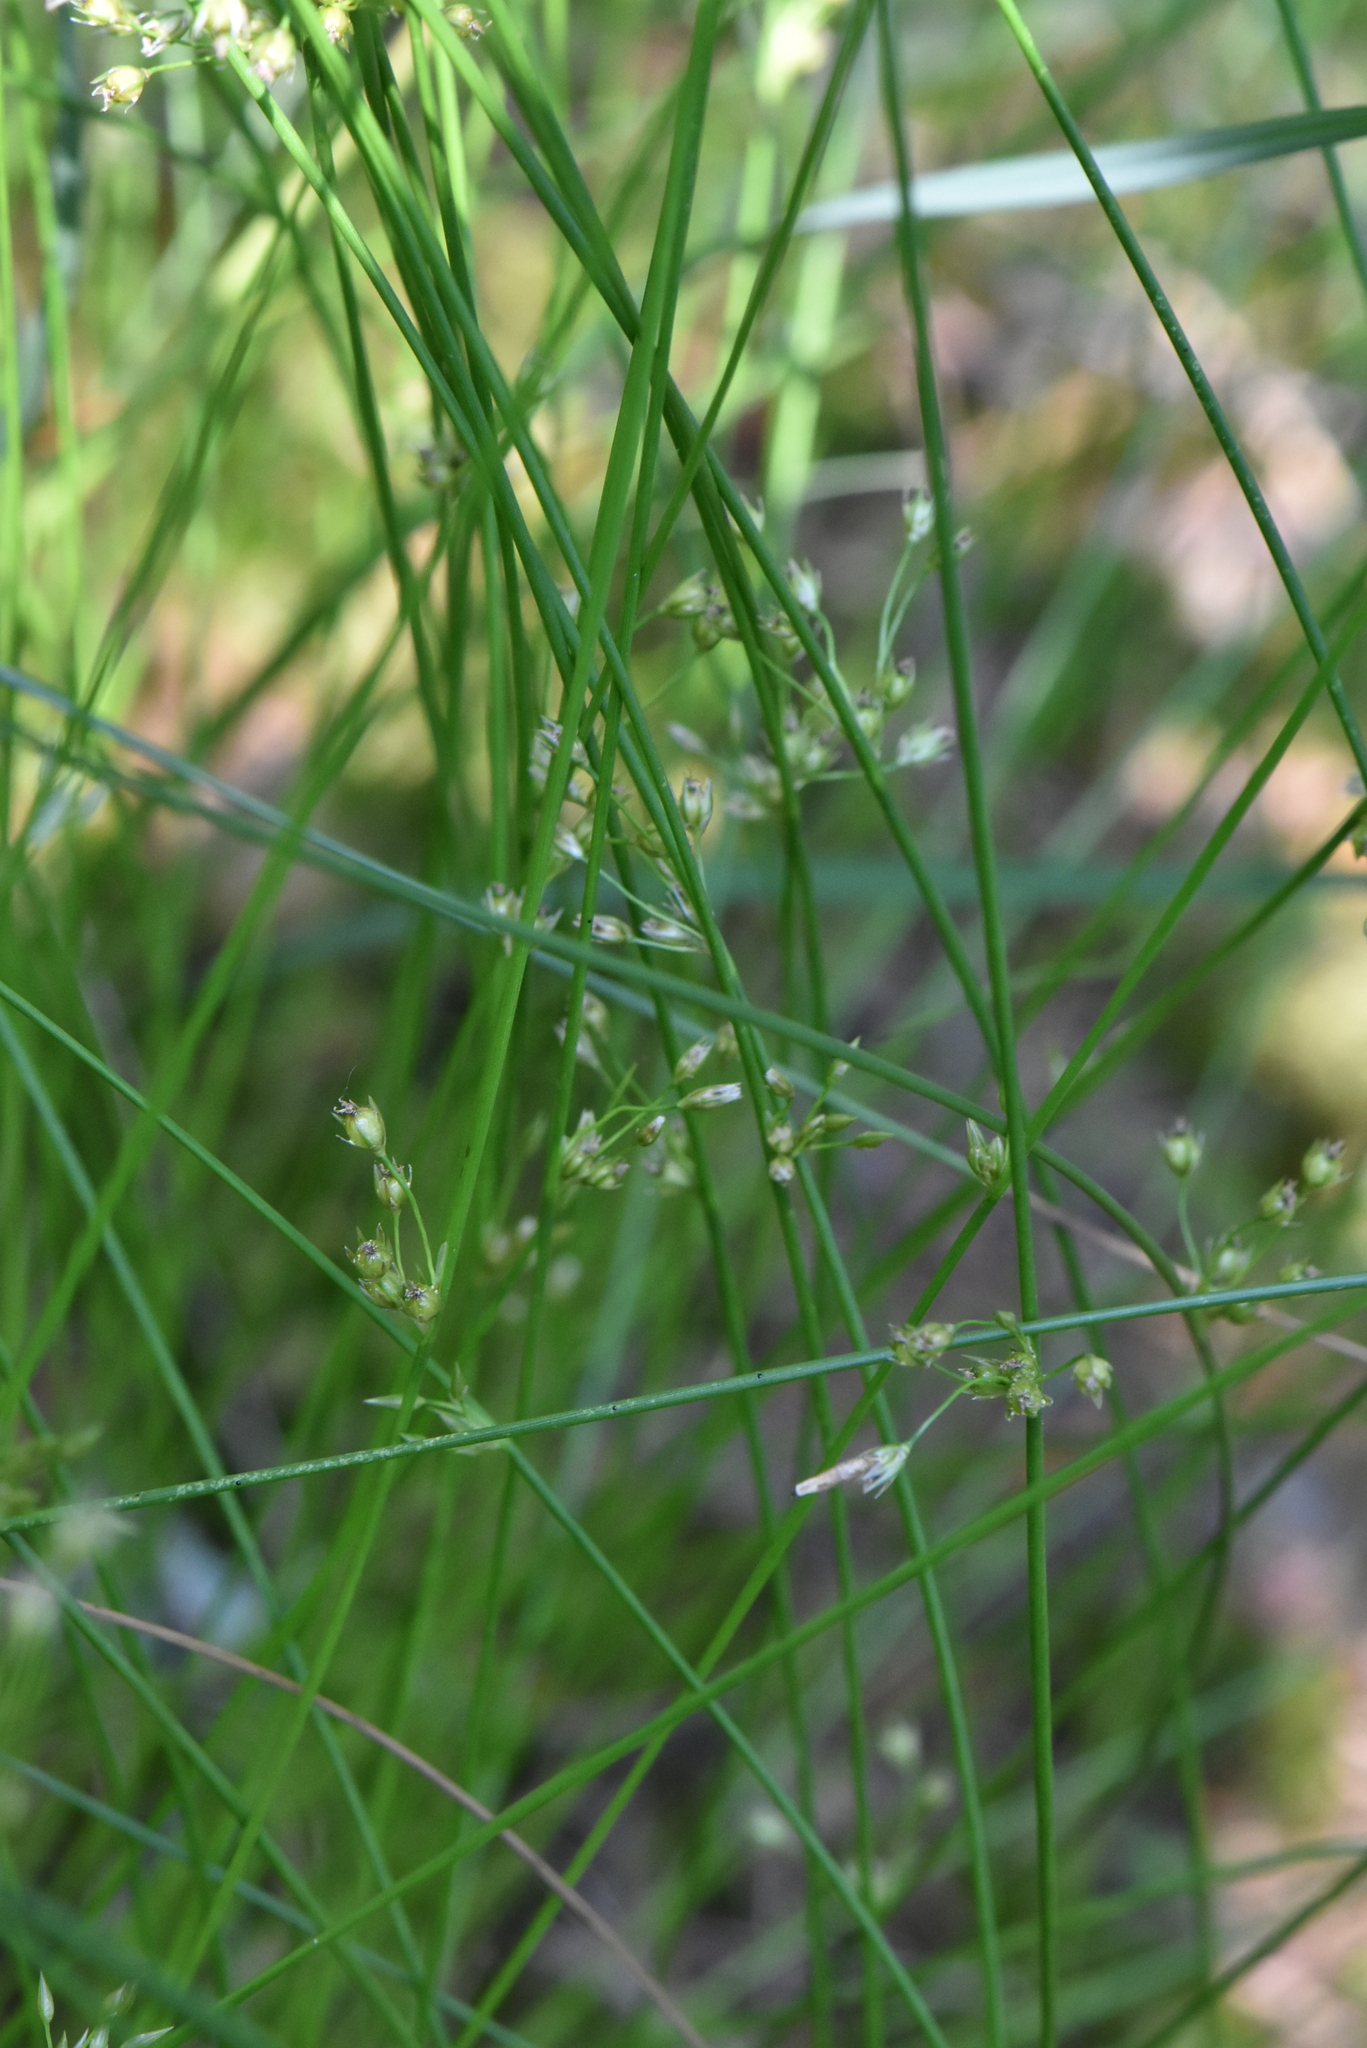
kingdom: Plantae
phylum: Tracheophyta
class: Liliopsida
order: Poales
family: Juncaceae
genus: Juncus
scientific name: Juncus filiformis
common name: Thread rush
